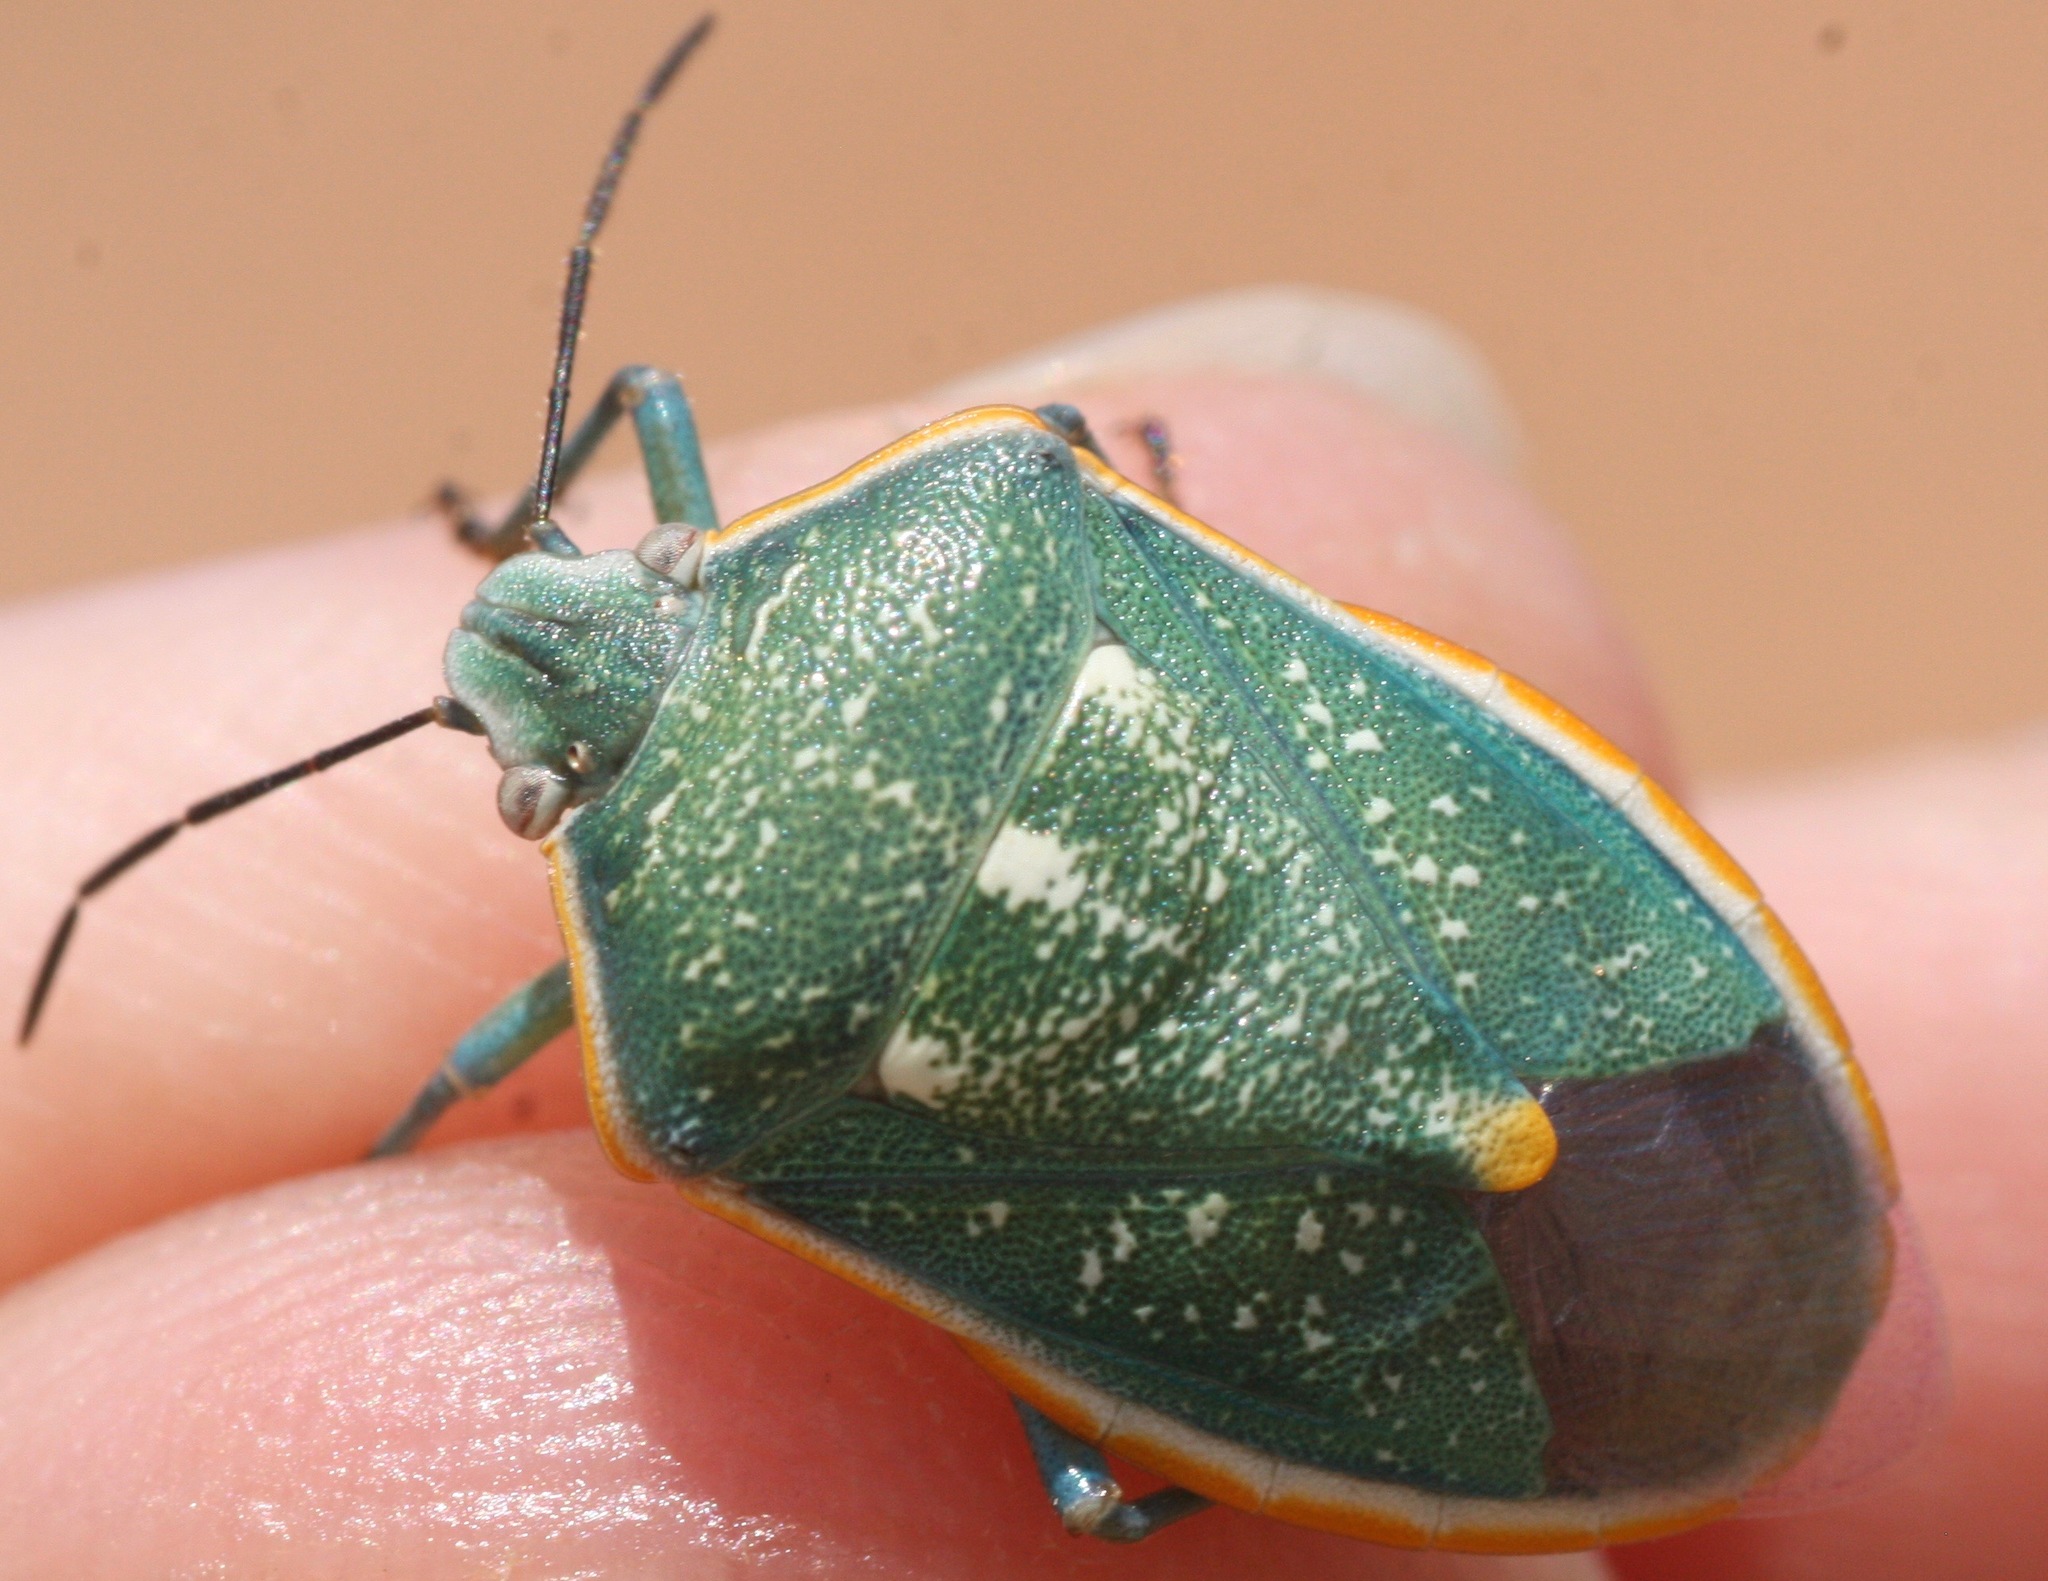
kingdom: Animalia
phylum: Arthropoda
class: Insecta
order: Hemiptera
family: Pentatomidae
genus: Chlorochroa
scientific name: Chlorochroa sayi
